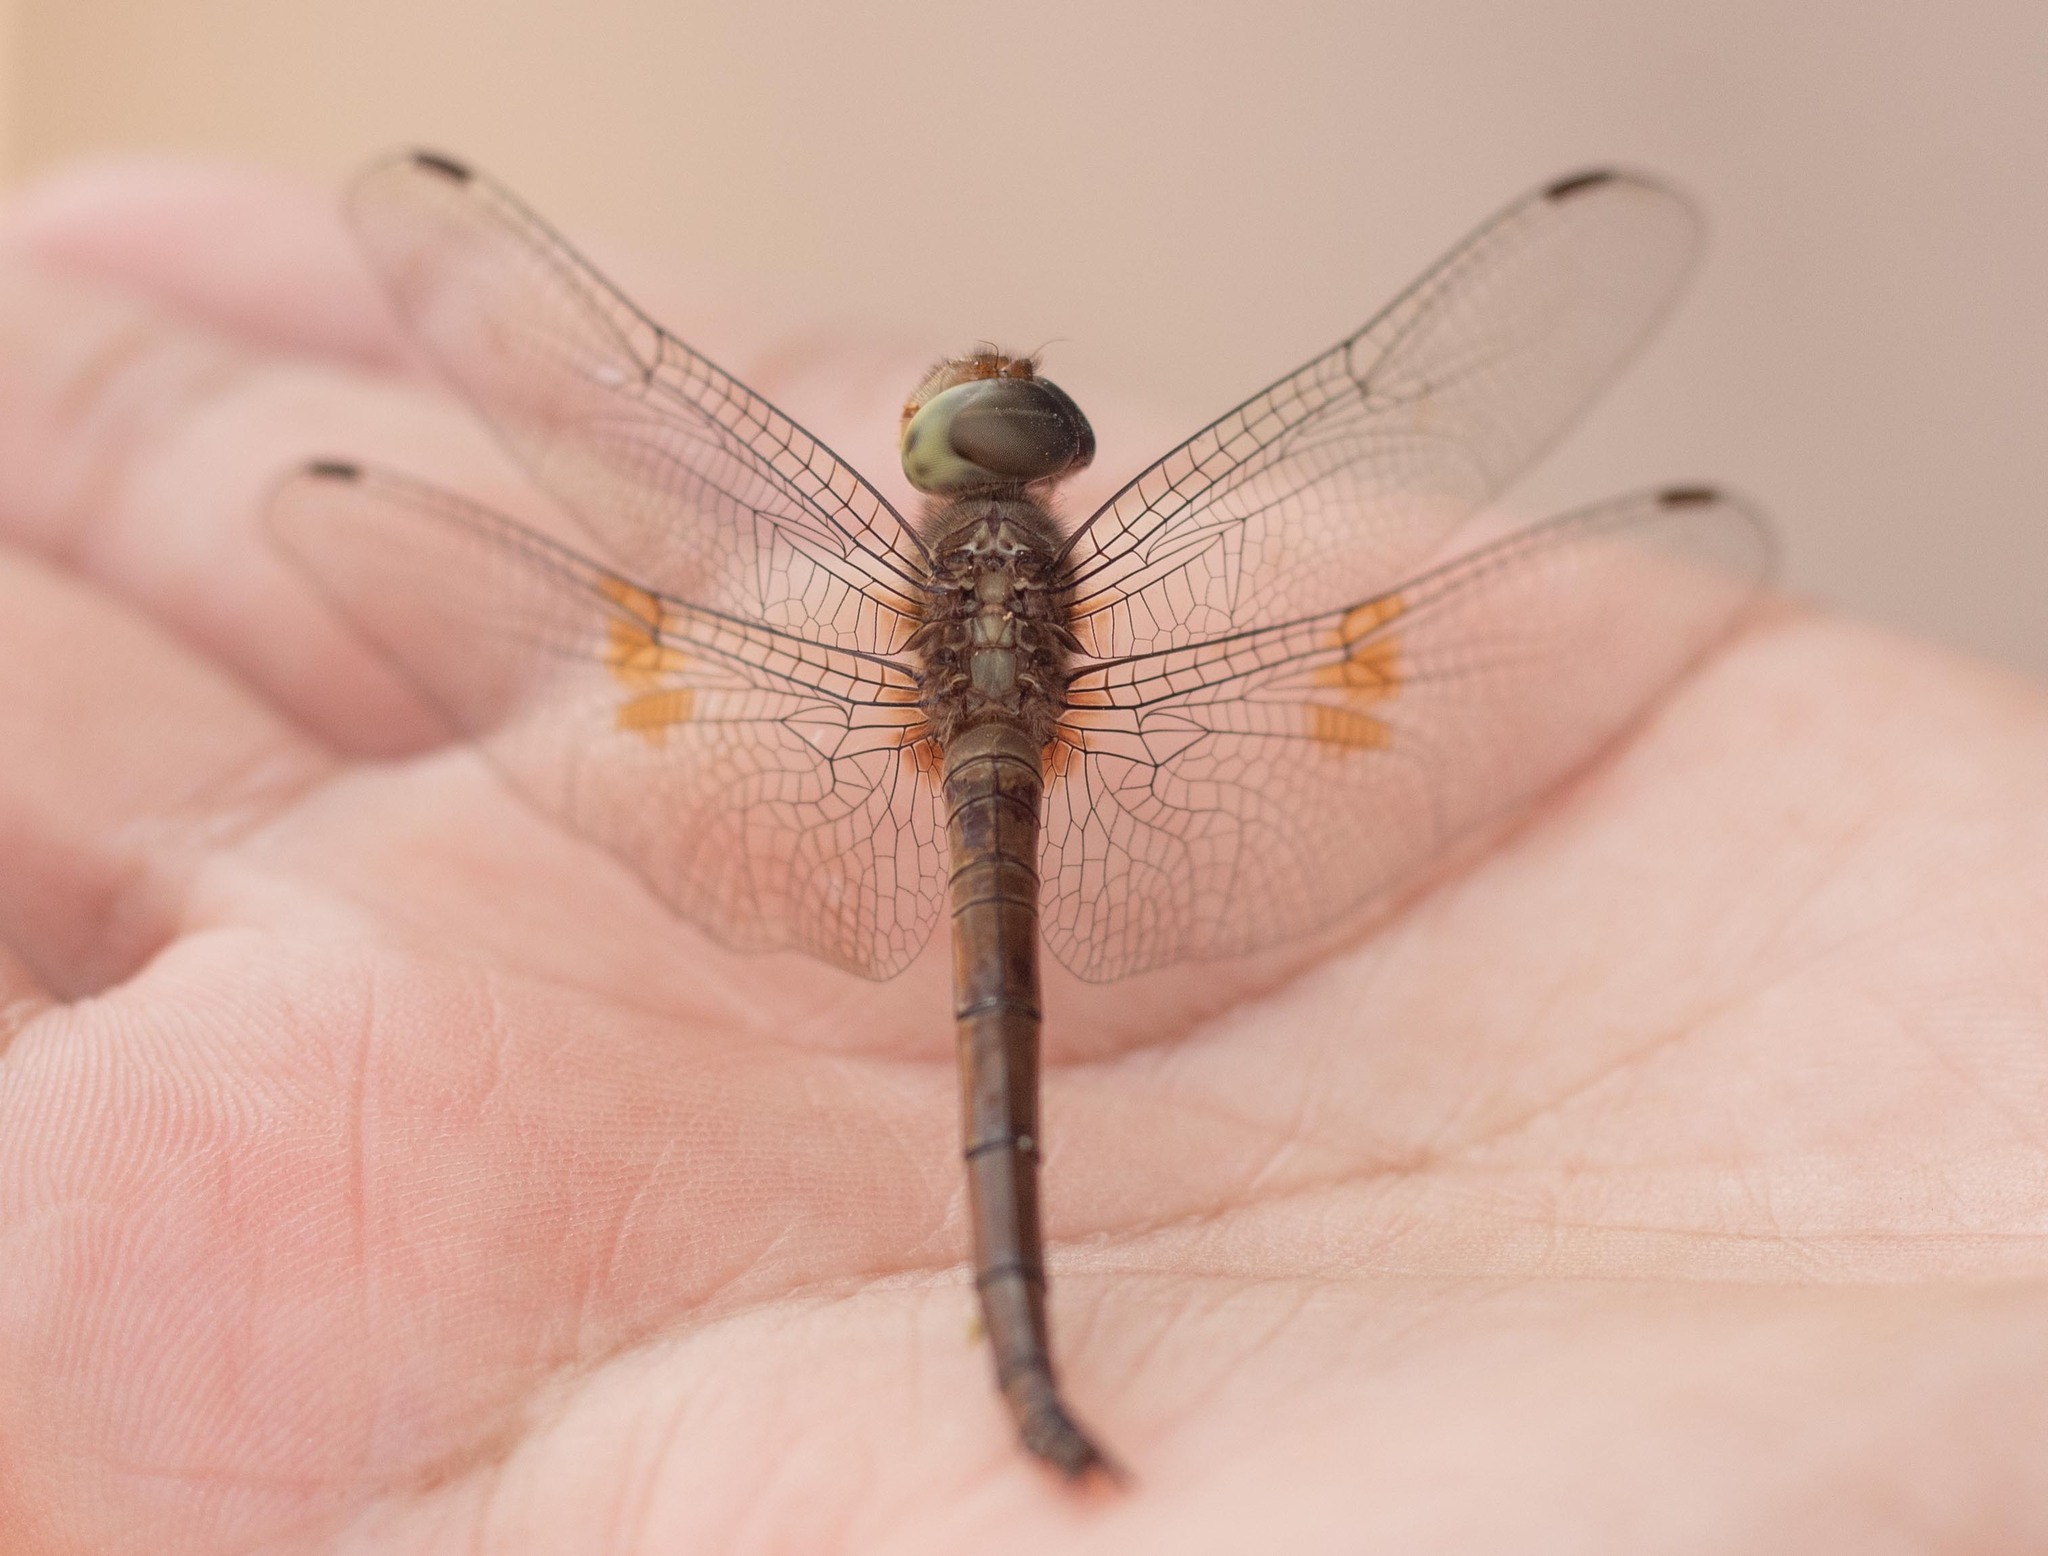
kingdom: Animalia
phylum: Arthropoda
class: Insecta
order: Odonata
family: Libellulidae
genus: Tholymis
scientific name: Tholymis citrina
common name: Evening skimmer
